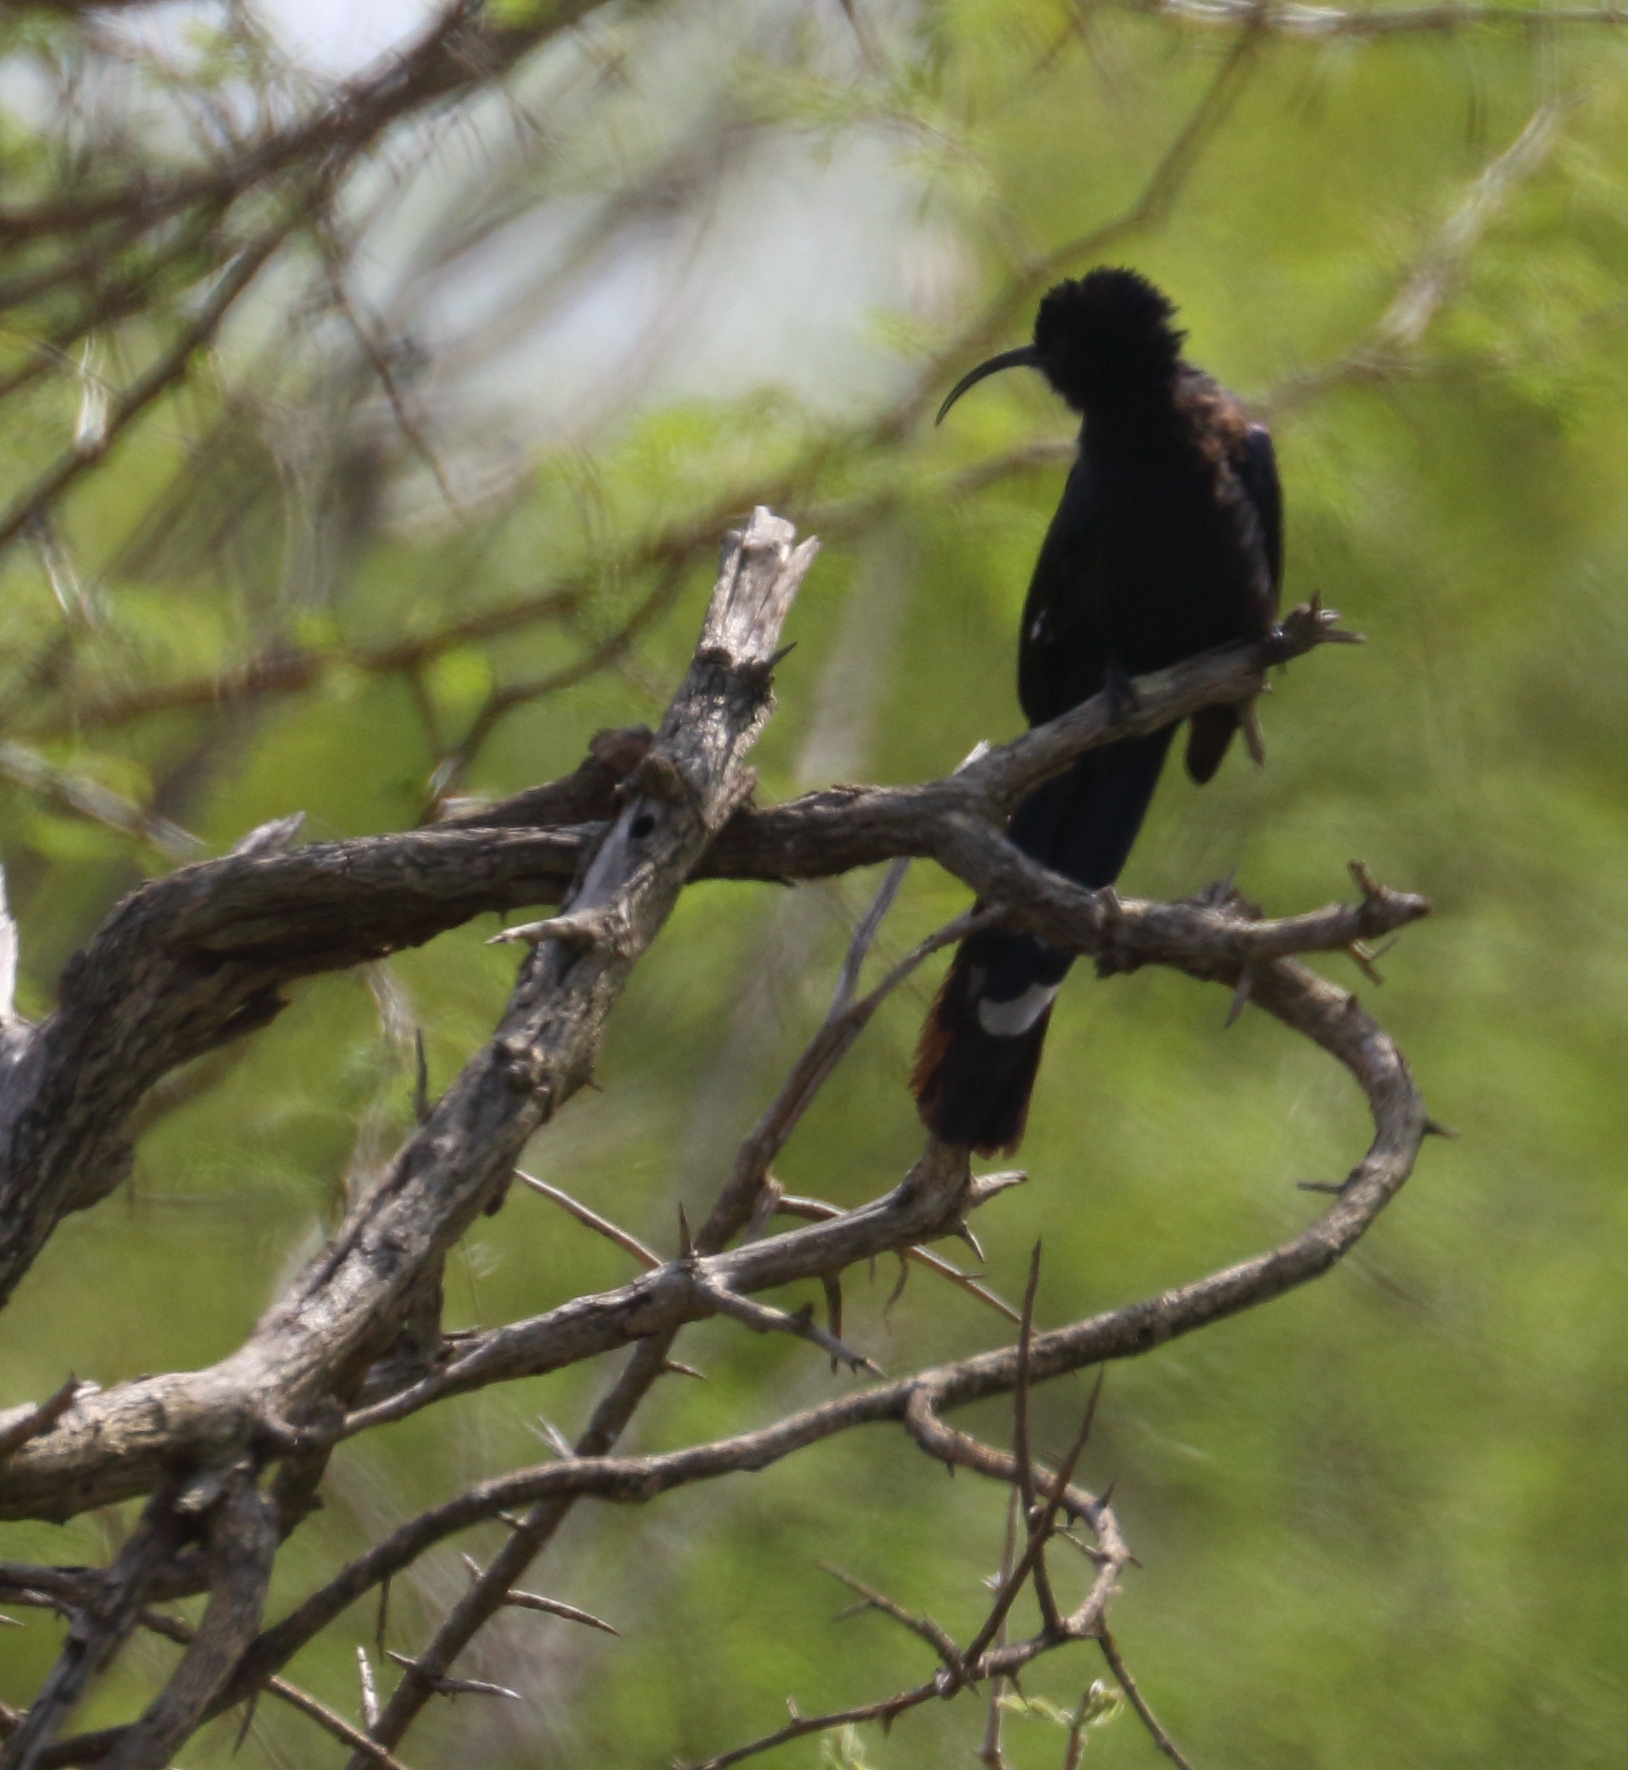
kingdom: Animalia
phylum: Chordata
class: Aves
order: Bucerotiformes
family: Phoeniculidae
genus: Rhinopomastus
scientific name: Rhinopomastus cyanomelas
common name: Common scimitarbill
